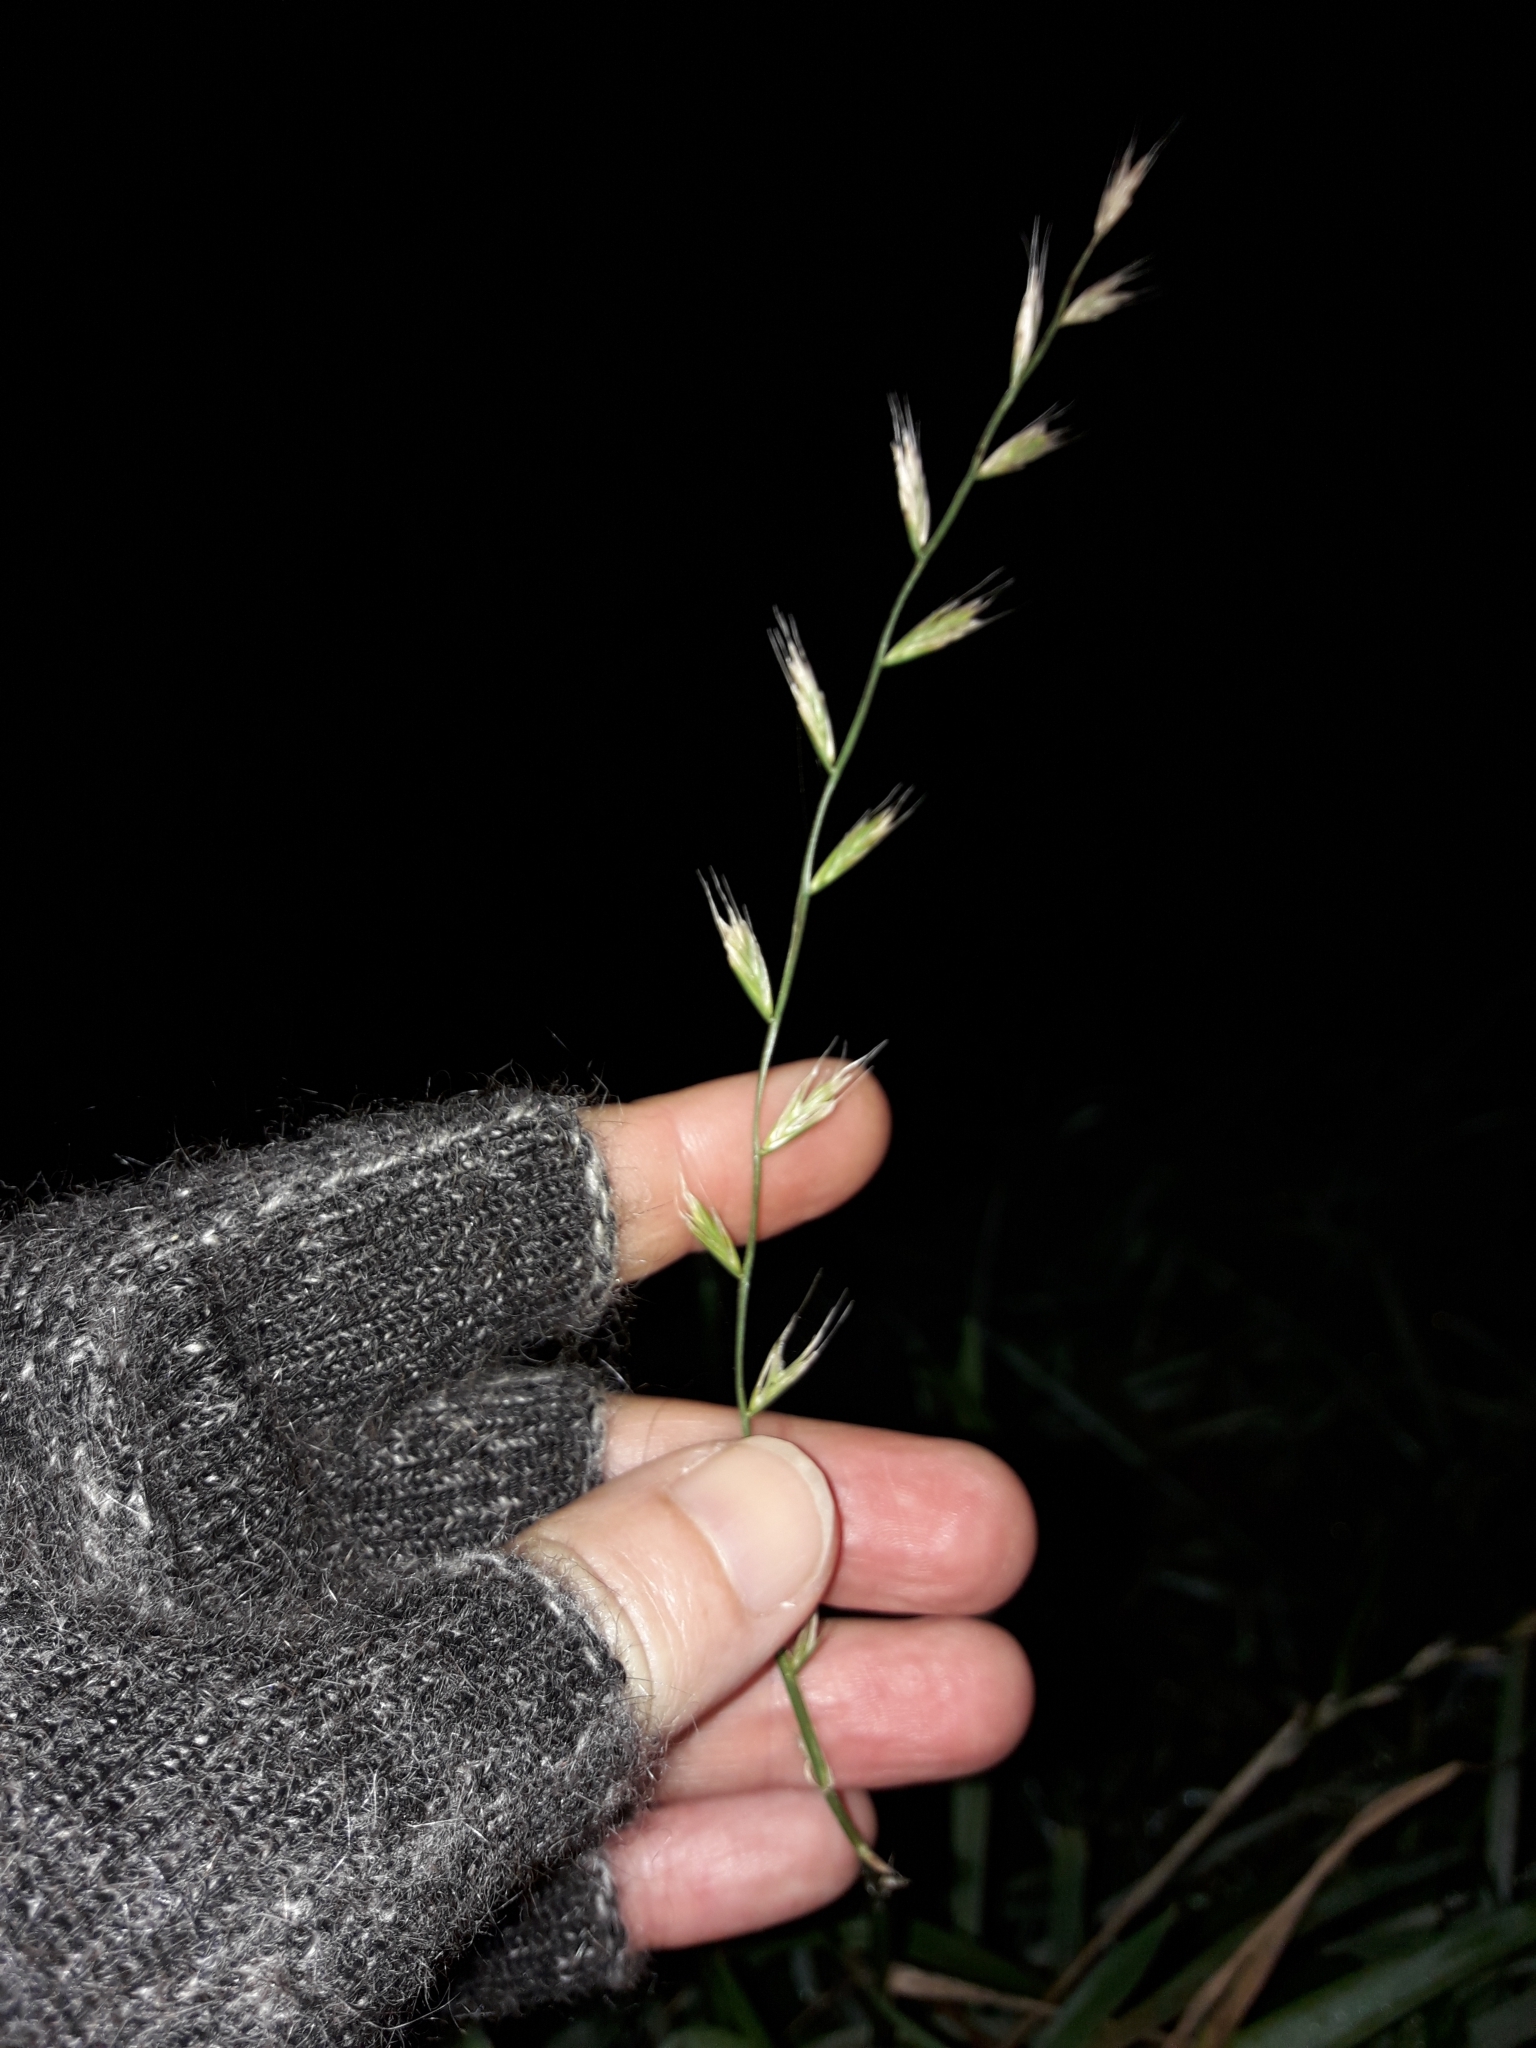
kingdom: Plantae
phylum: Tracheophyta
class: Liliopsida
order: Poales
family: Poaceae
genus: Lolium
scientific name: Lolium multiflorum
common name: Annual ryegrass
